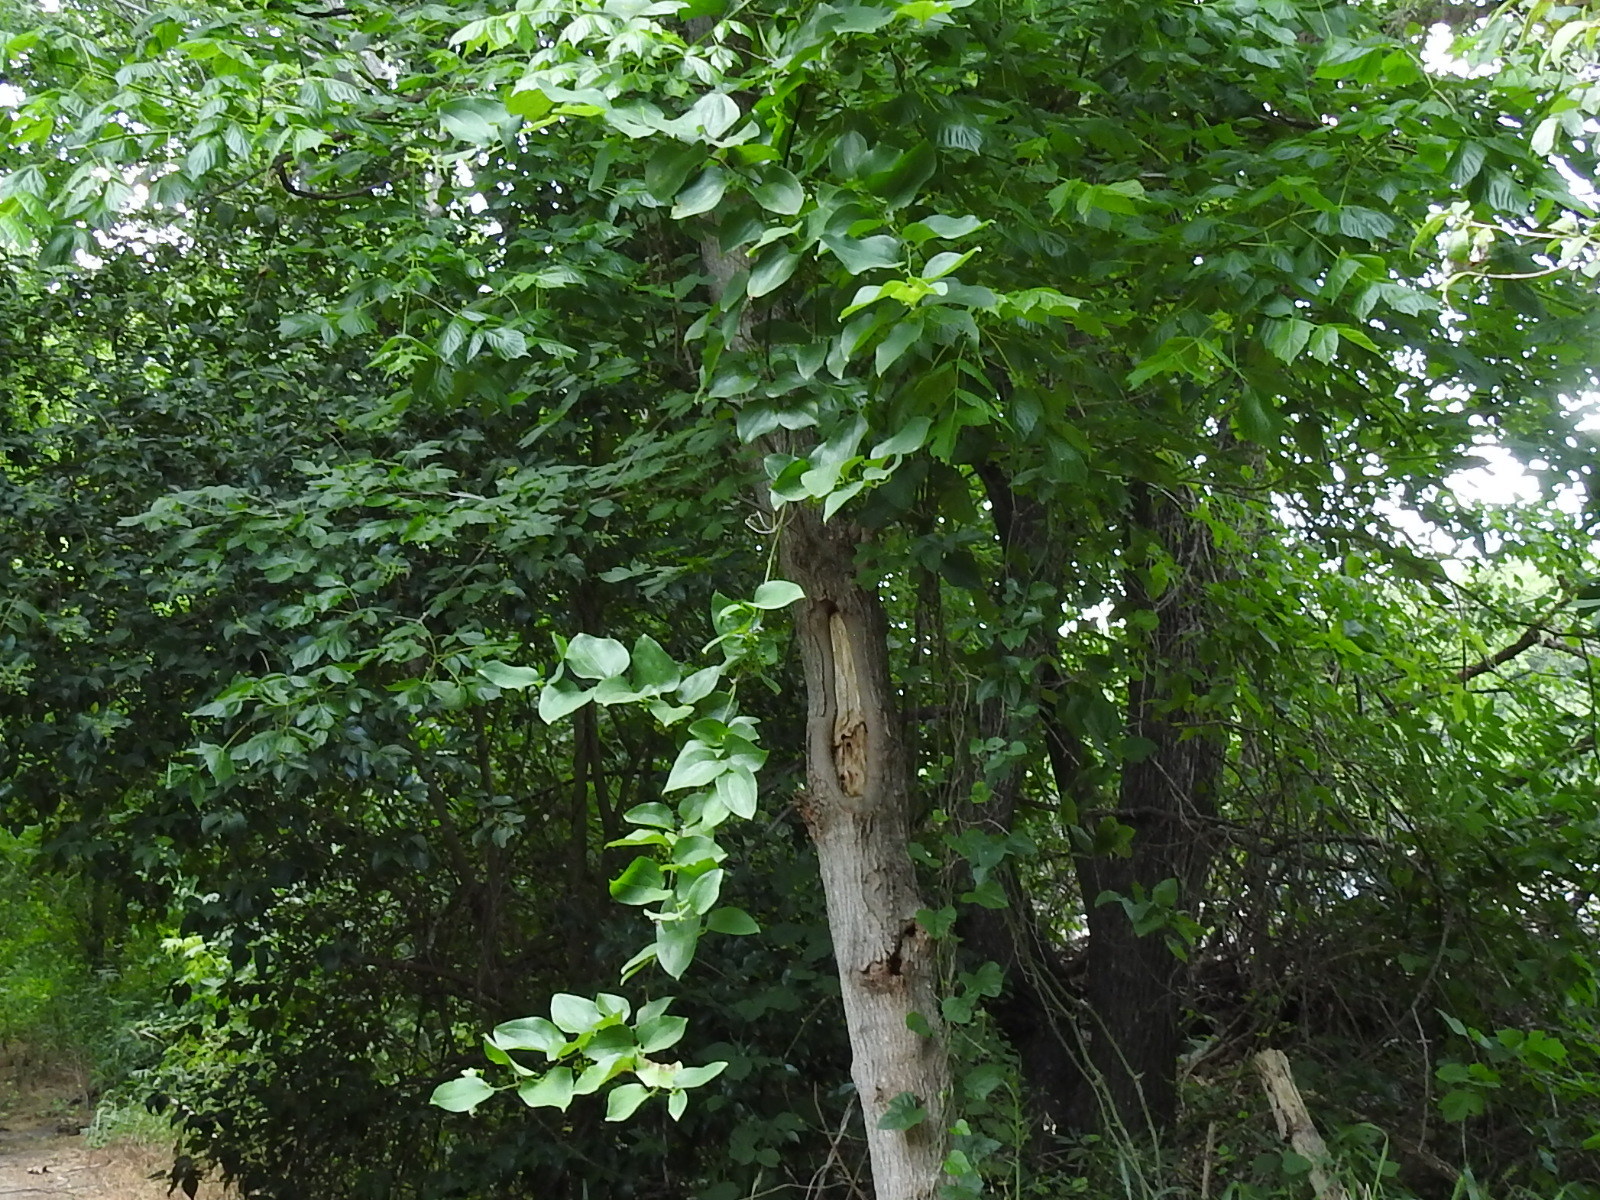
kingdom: Plantae
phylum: Tracheophyta
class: Liliopsida
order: Liliales
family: Smilacaceae
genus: Smilax
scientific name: Smilax tamnoides
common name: Hellfetter
